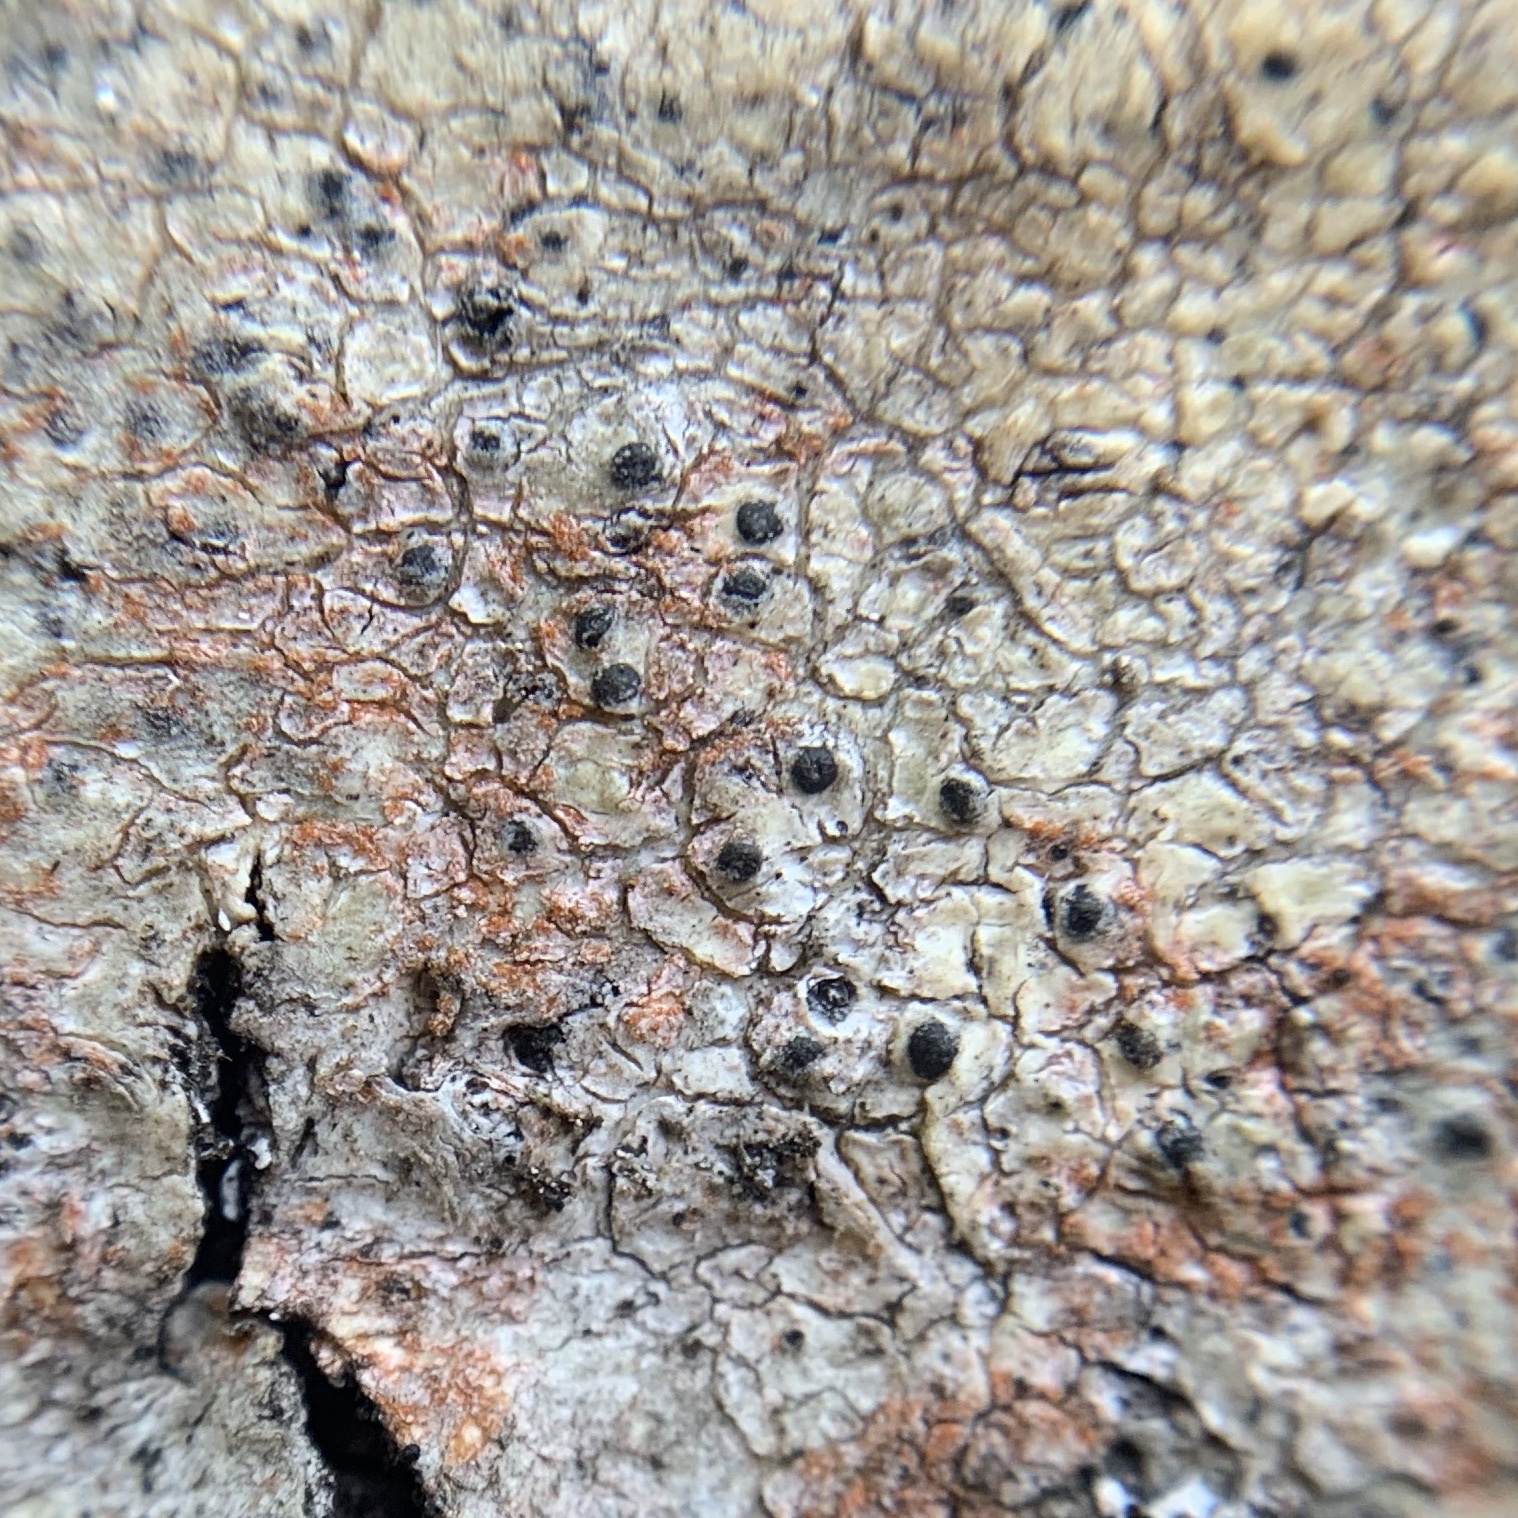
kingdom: Fungi
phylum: Ascomycota
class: Eurotiomycetes
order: Pyrenulales
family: Pyrenulaceae
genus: Pyrenula
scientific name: Pyrenula pseudobufonia
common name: Easter pox lichen
